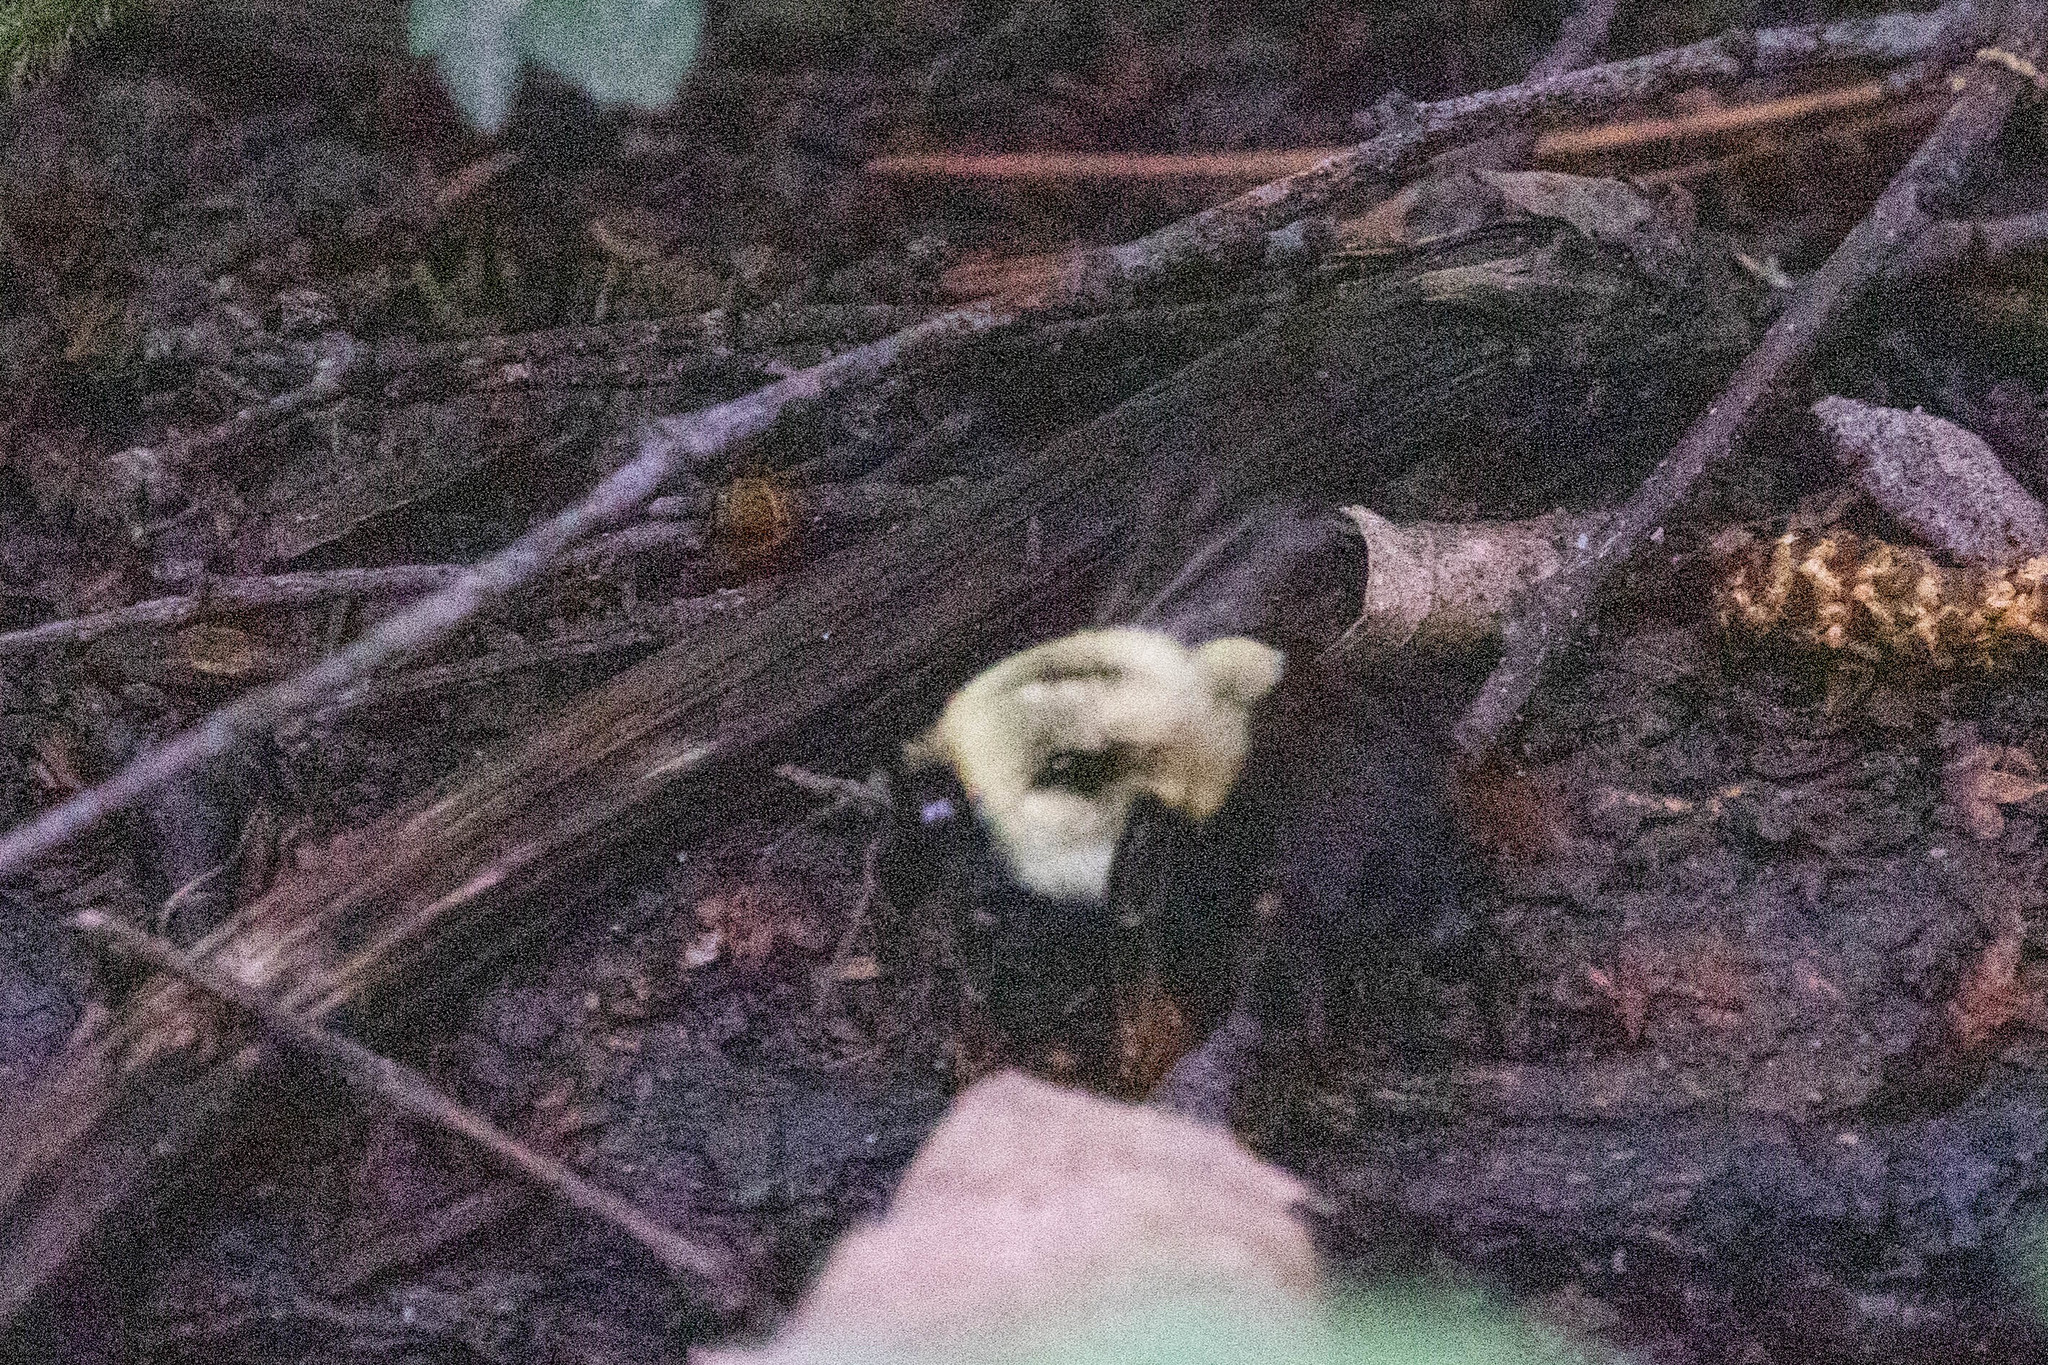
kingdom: Animalia
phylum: Arthropoda
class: Insecta
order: Hymenoptera
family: Apidae
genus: Bombus
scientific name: Bombus impatiens
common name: Common eastern bumble bee
